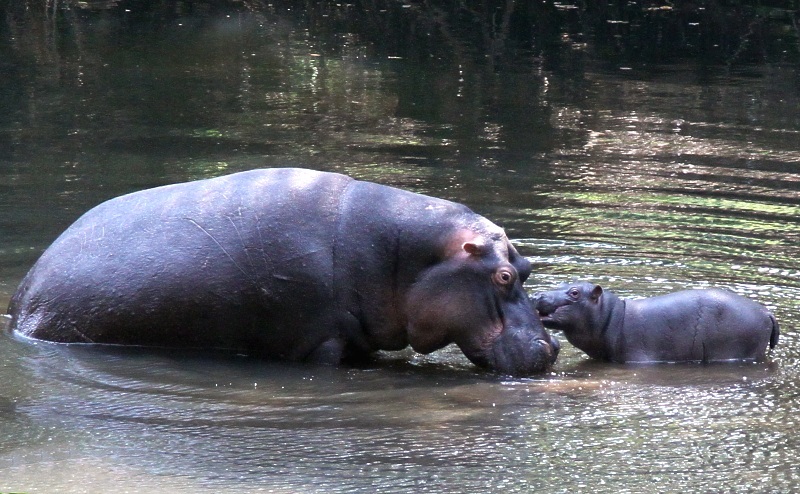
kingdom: Animalia
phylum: Chordata
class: Mammalia
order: Artiodactyla
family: Hippopotamidae
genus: Hippopotamus
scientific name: Hippopotamus amphibius
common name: Common hippopotamus
